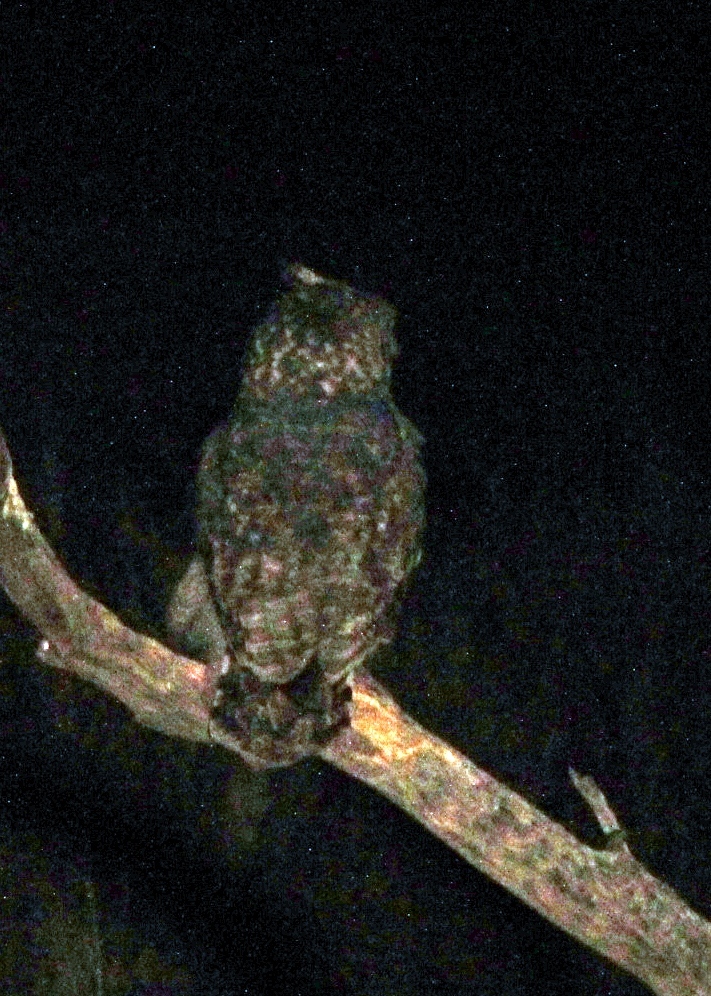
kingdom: Animalia
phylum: Chordata
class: Aves
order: Strigiformes
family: Strigidae
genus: Bubo
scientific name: Bubo africanus
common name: Spotted eagle-owl
